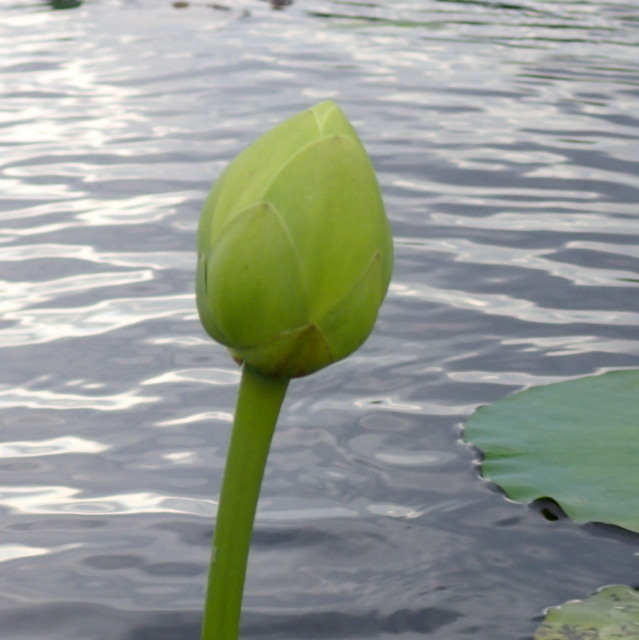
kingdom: Plantae
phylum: Tracheophyta
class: Magnoliopsida
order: Proteales
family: Nelumbonaceae
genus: Nelumbo
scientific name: Nelumbo lutea
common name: American lotus
